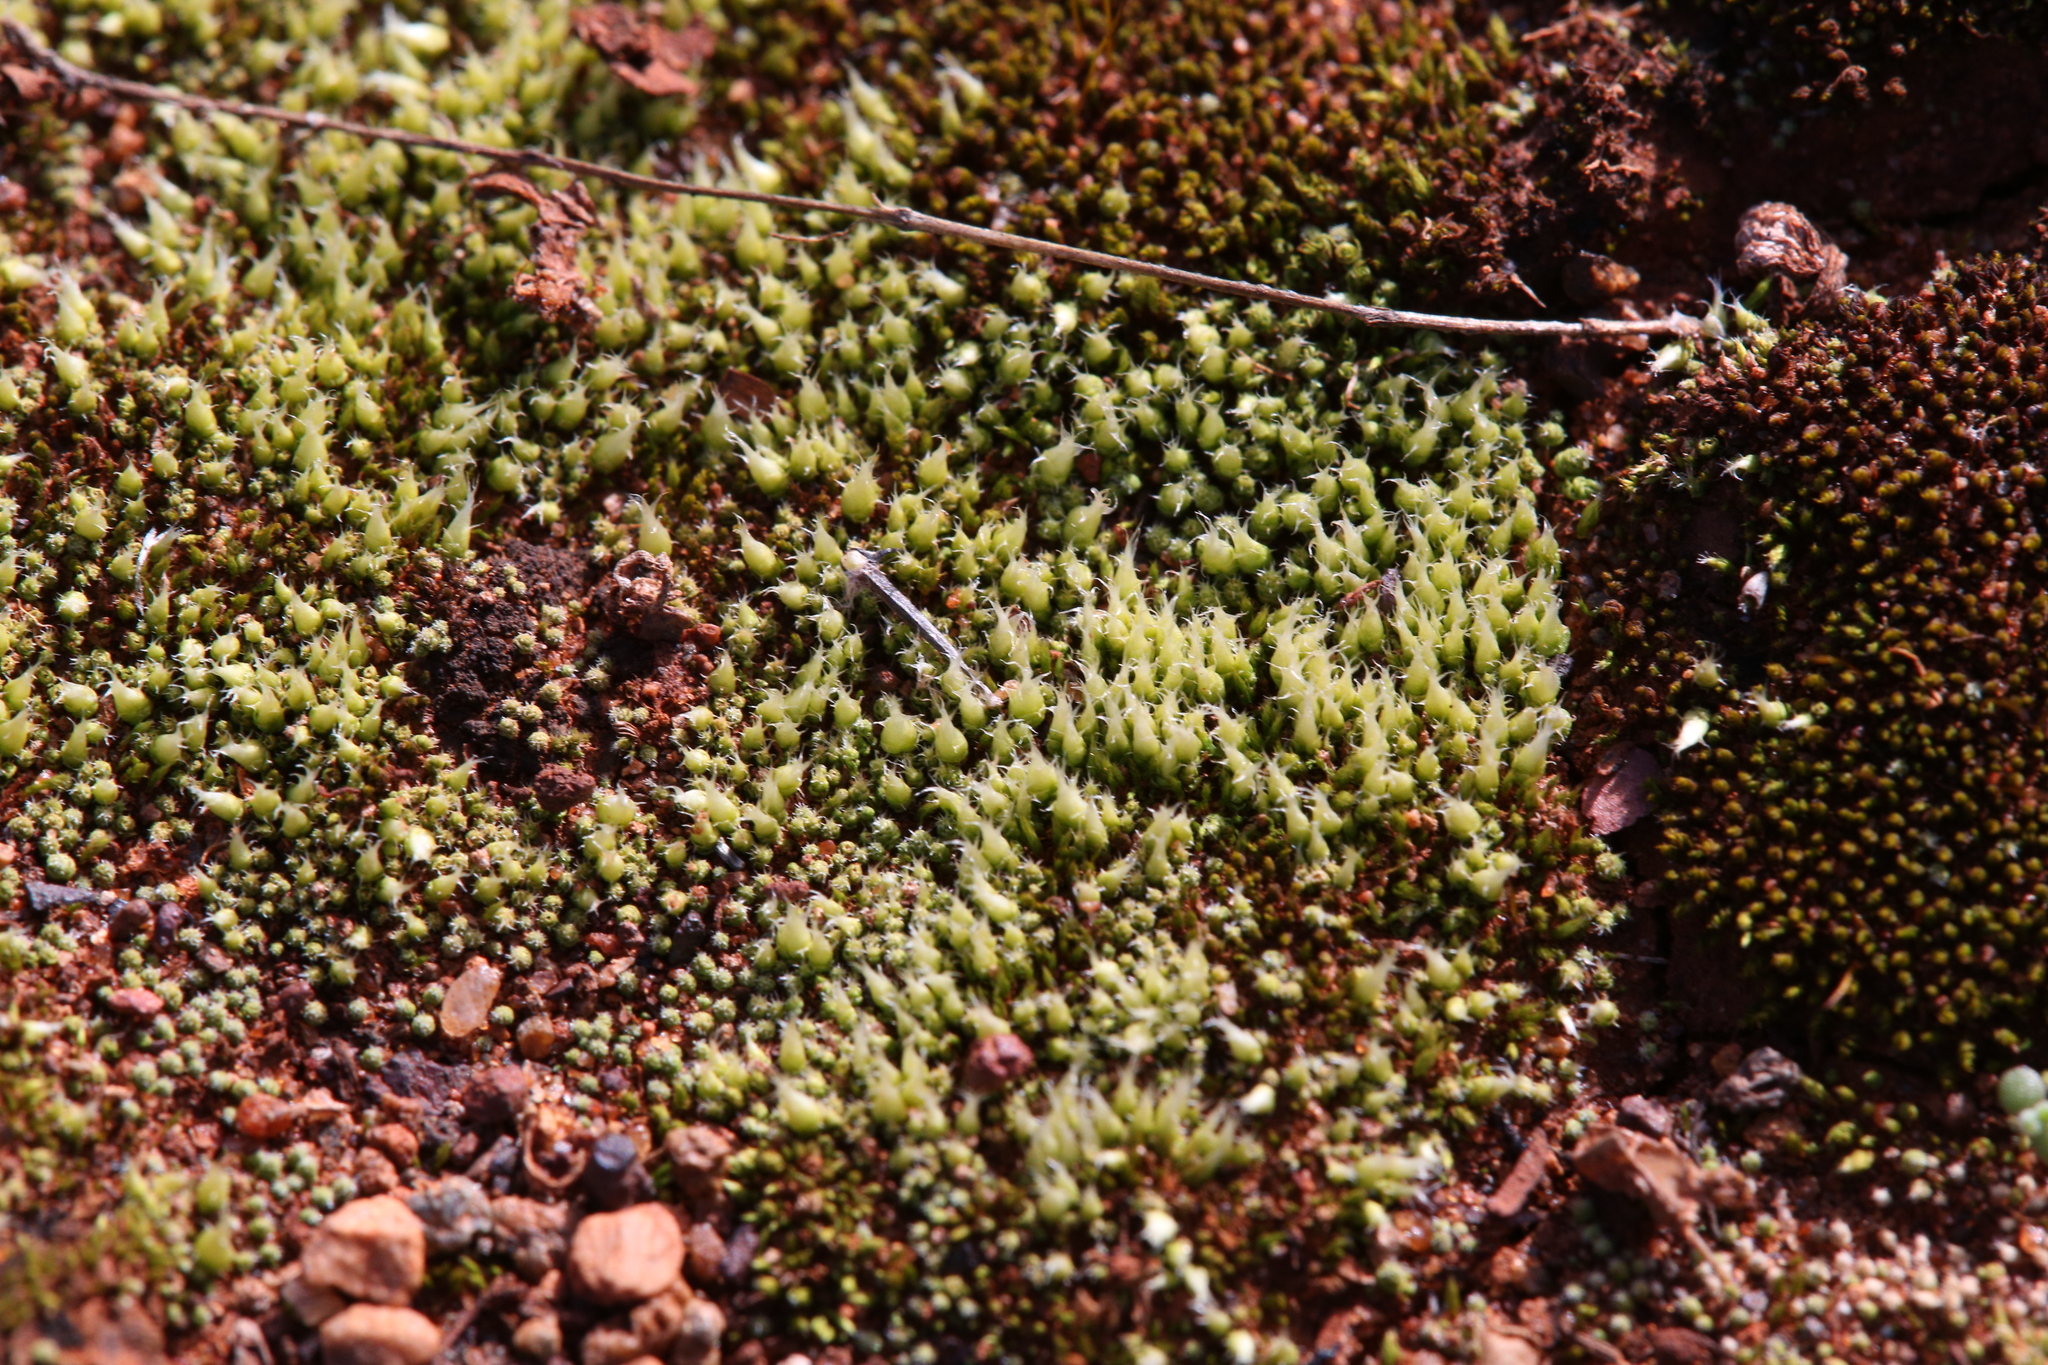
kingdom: Plantae
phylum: Bryophyta
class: Bryopsida
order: Gigaspermales
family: Gigaspermaceae
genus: Gigaspermum
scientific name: Gigaspermum repens
